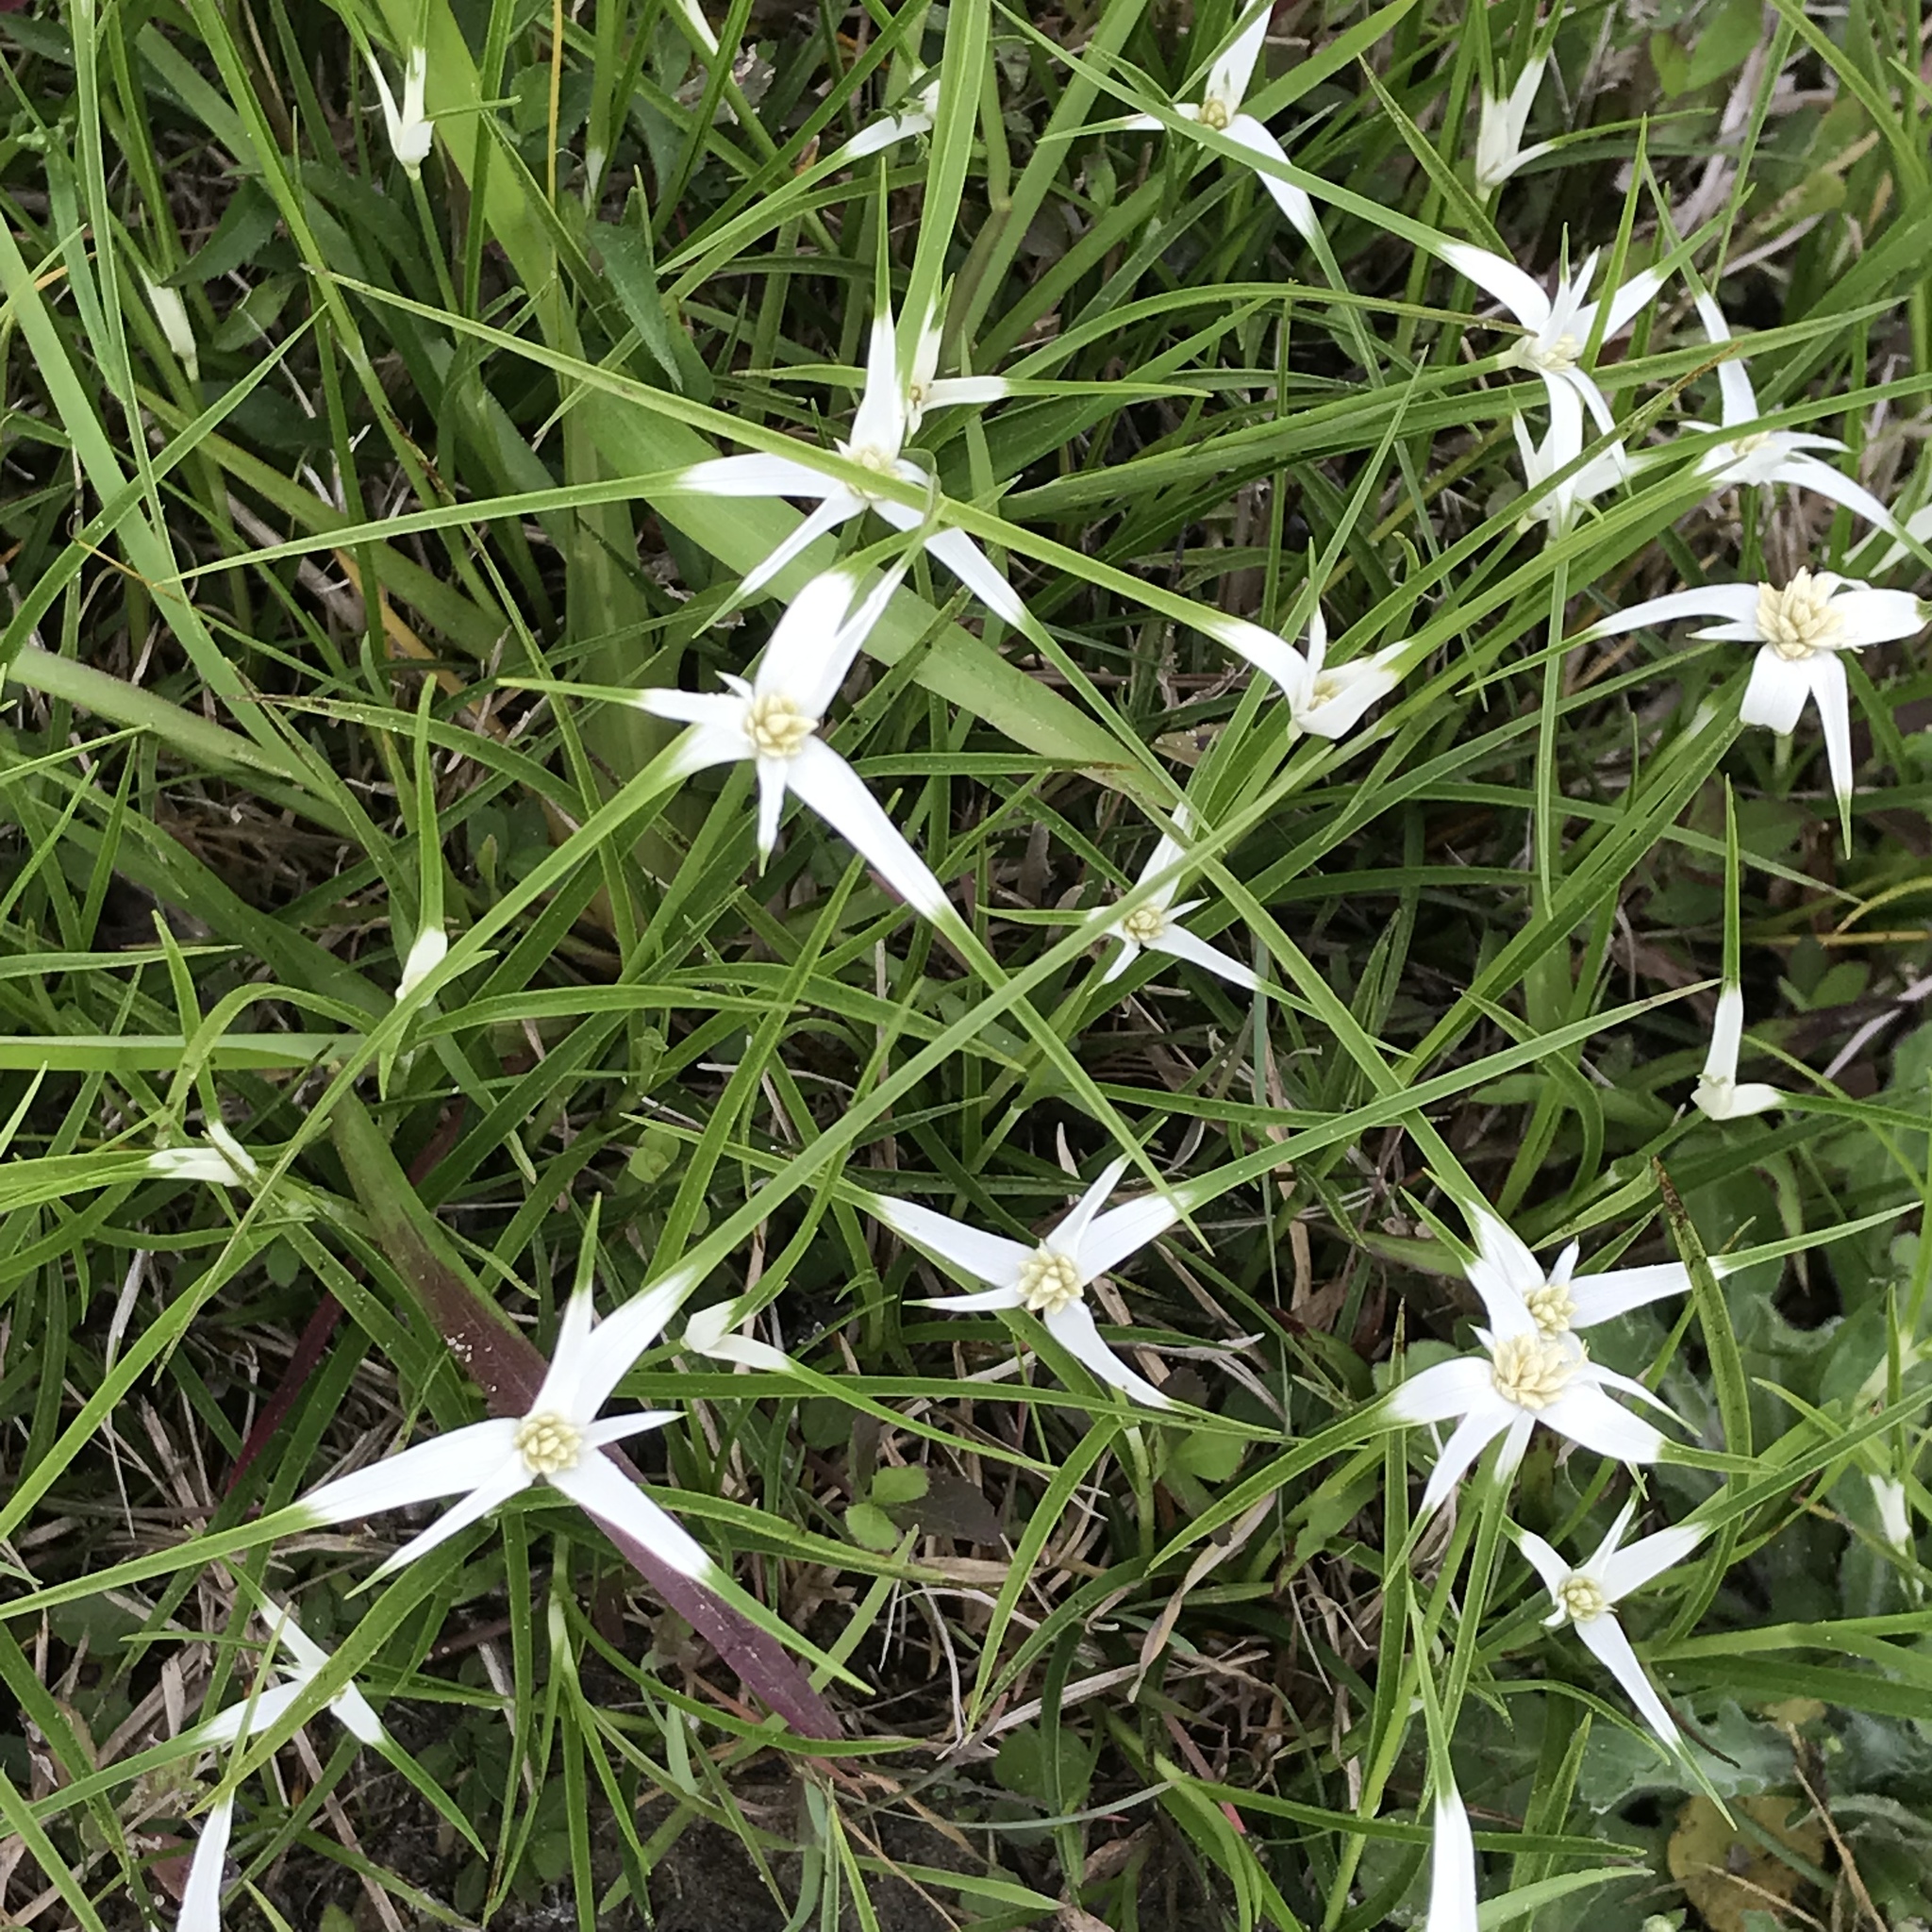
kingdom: Plantae
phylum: Tracheophyta
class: Liliopsida
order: Poales
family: Cyperaceae
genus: Rhynchospora
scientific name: Rhynchospora colorata
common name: Star sedge
